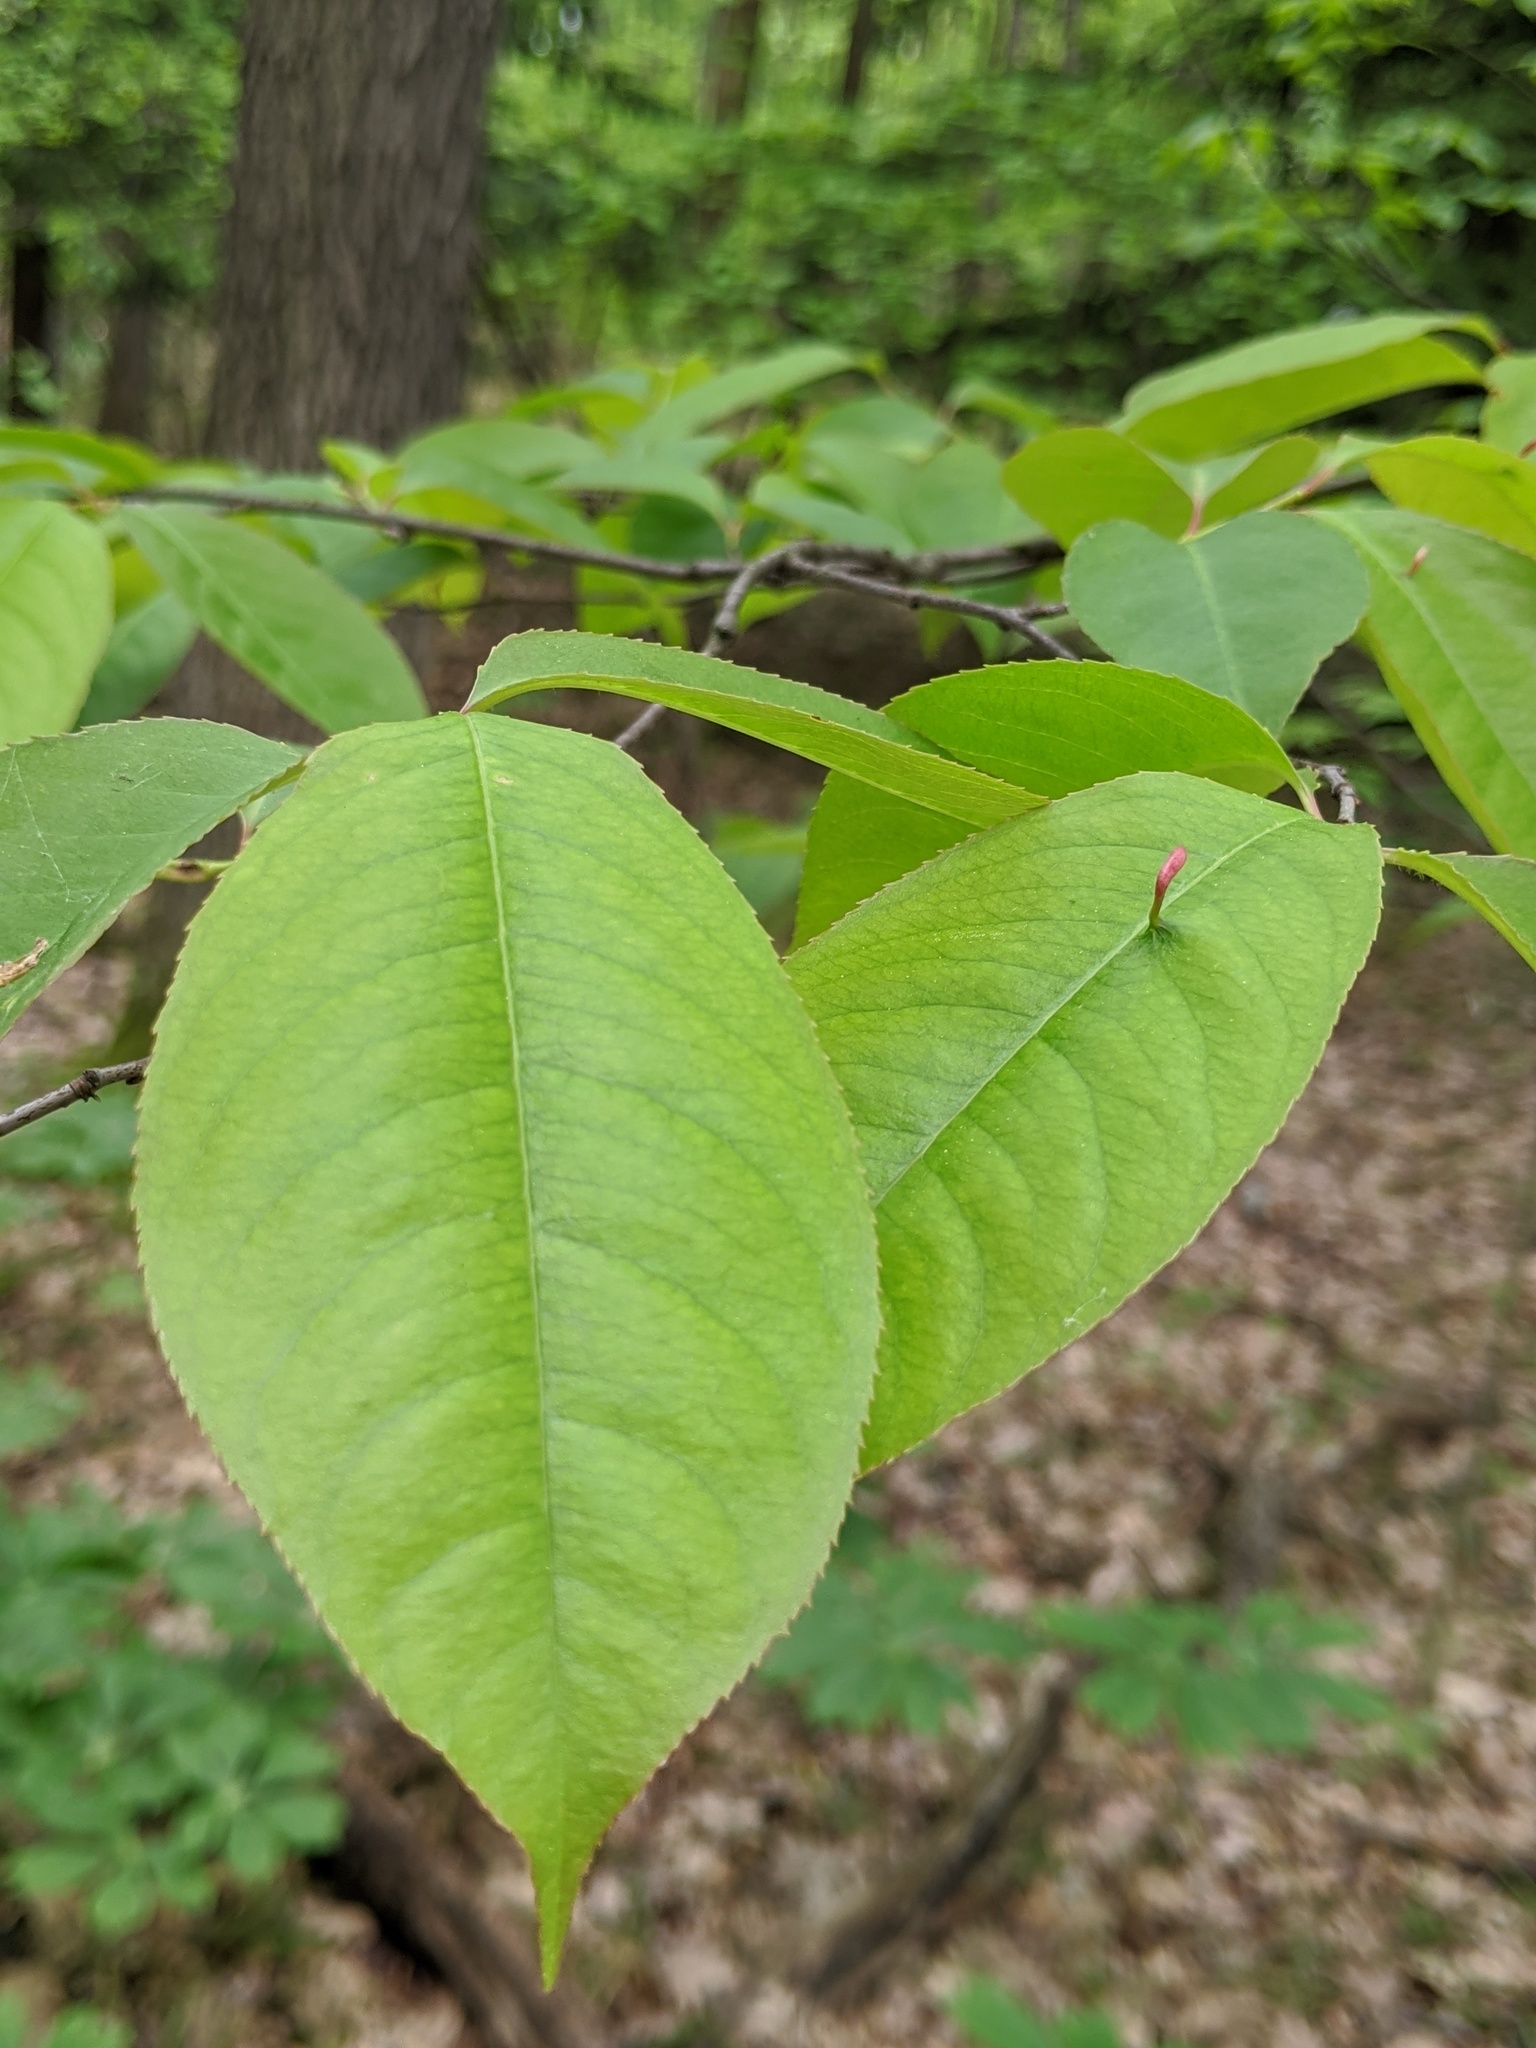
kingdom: Plantae
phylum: Tracheophyta
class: Magnoliopsida
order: Rosales
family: Rosaceae
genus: Prunus
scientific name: Prunus serotina
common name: Black cherry
